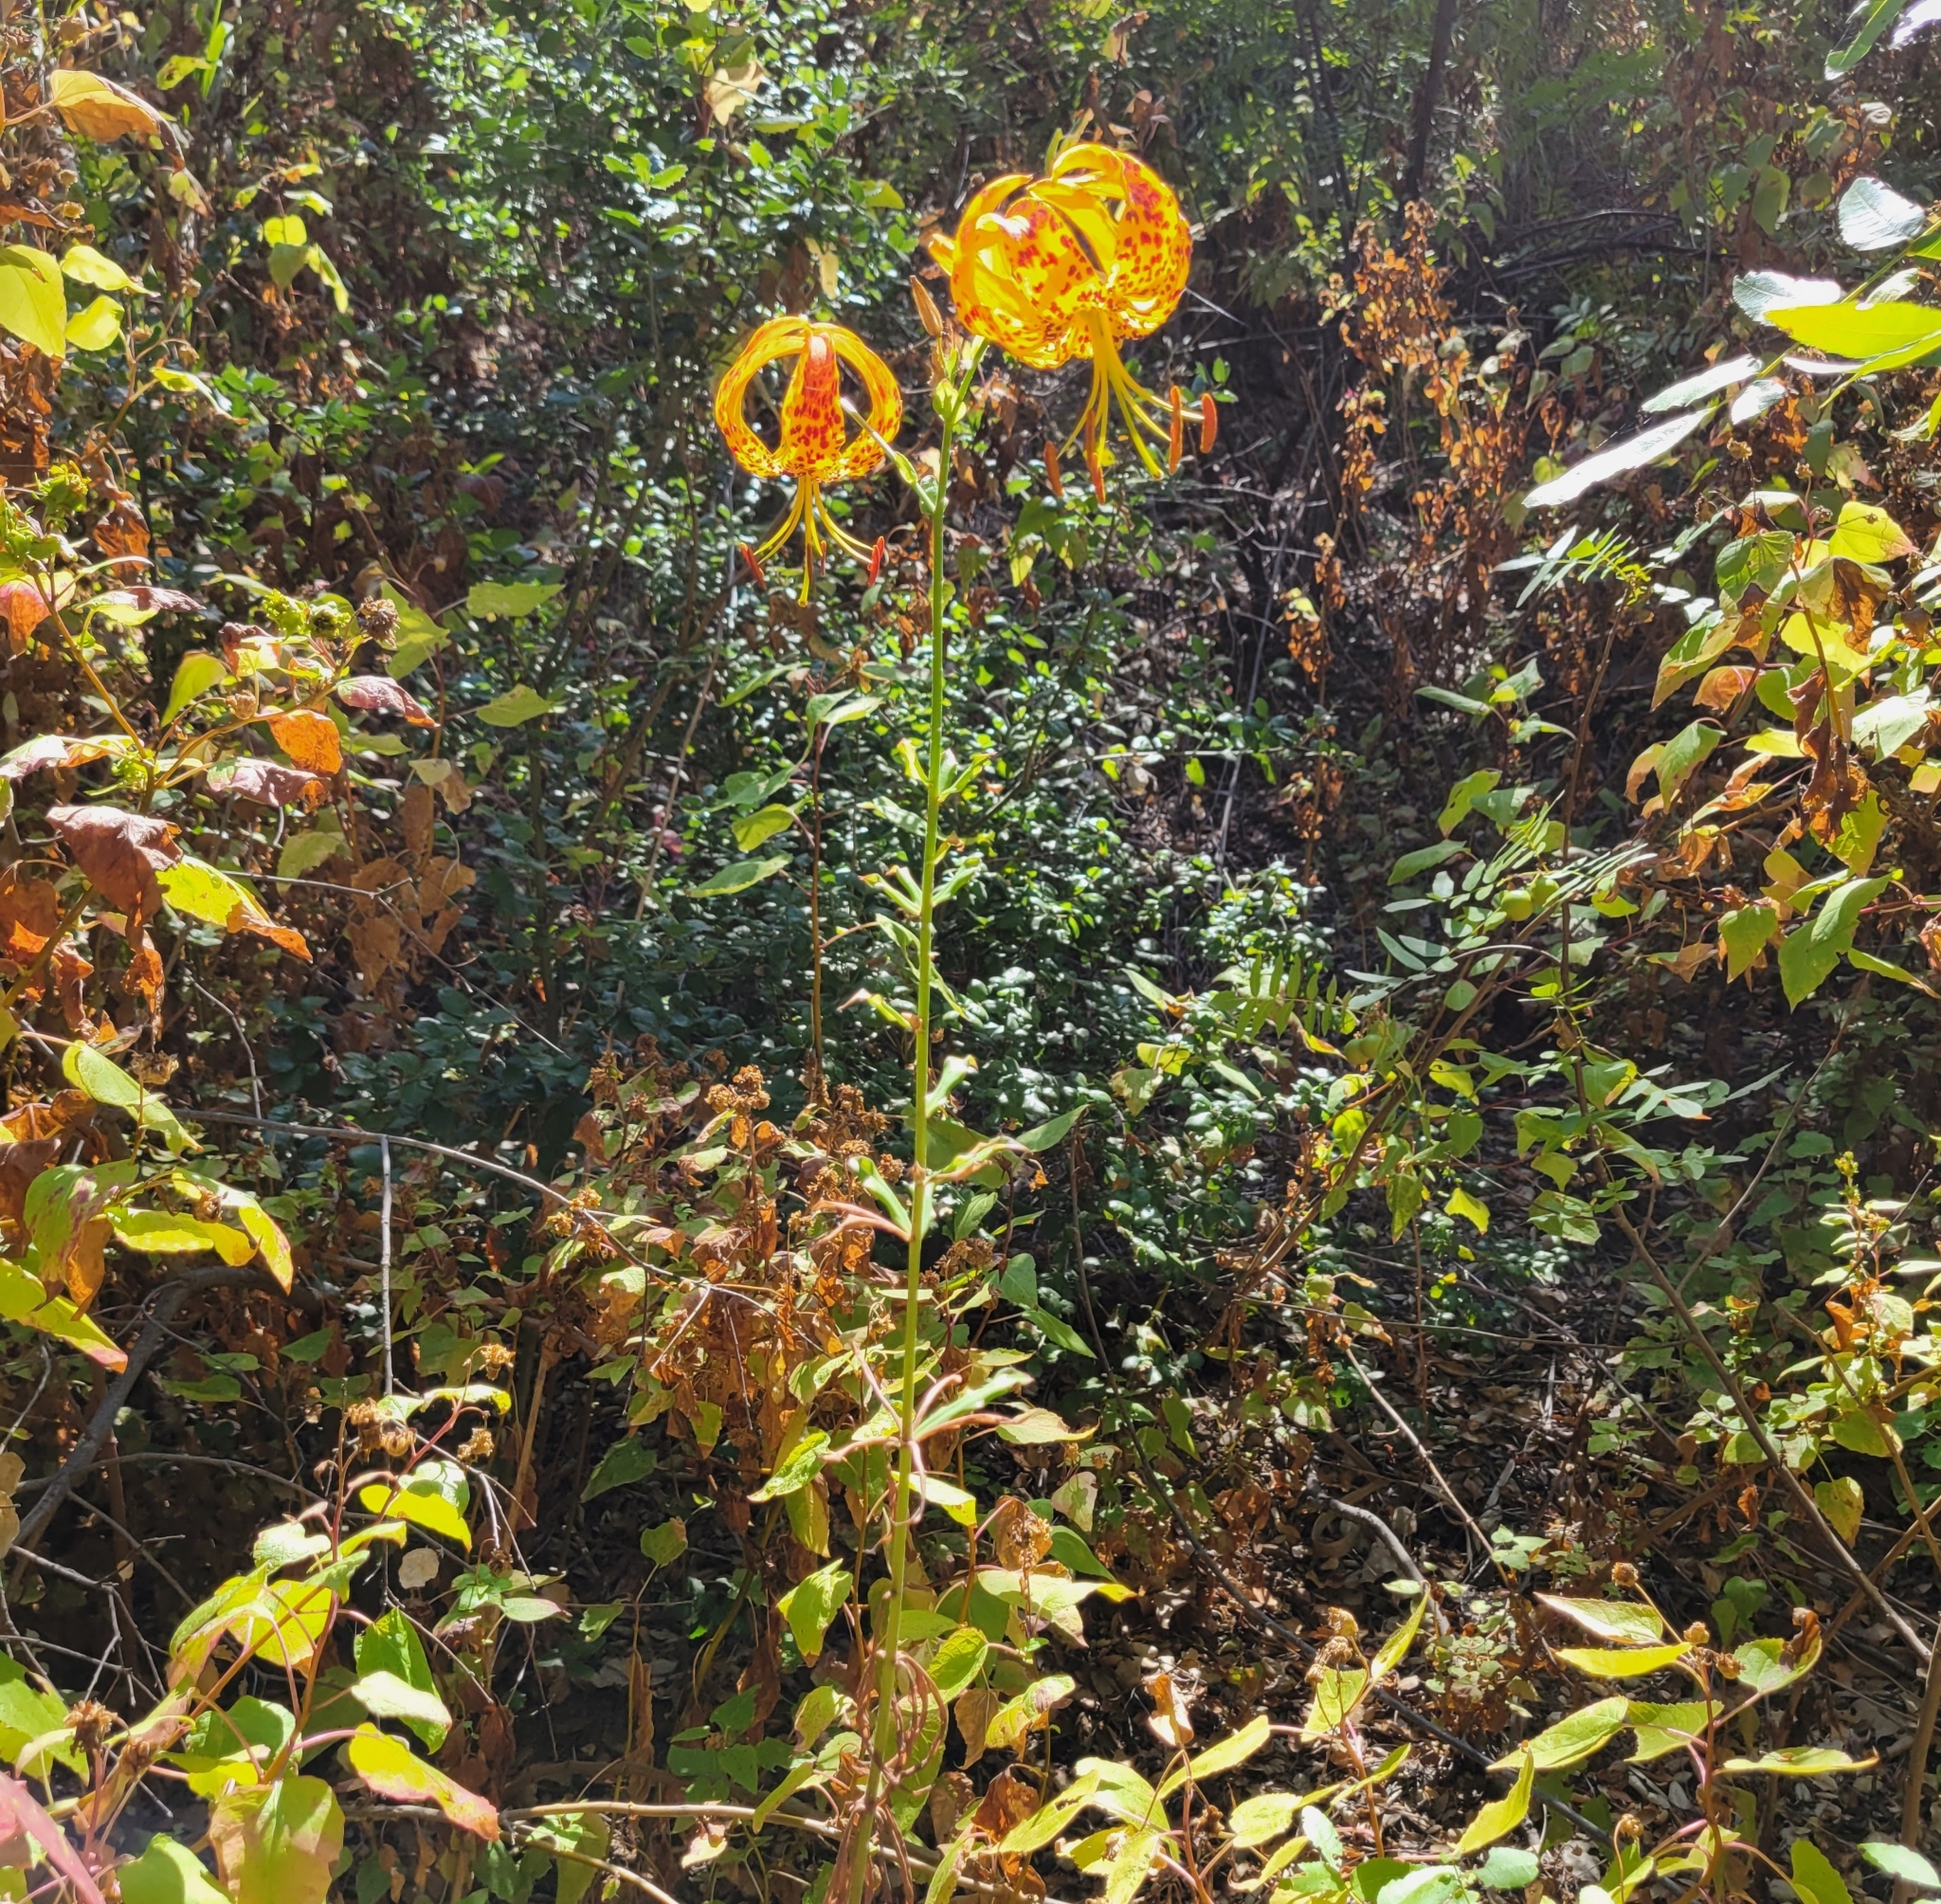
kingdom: Plantae
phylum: Tracheophyta
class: Liliopsida
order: Liliales
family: Liliaceae
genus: Lilium
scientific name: Lilium humboldtii
